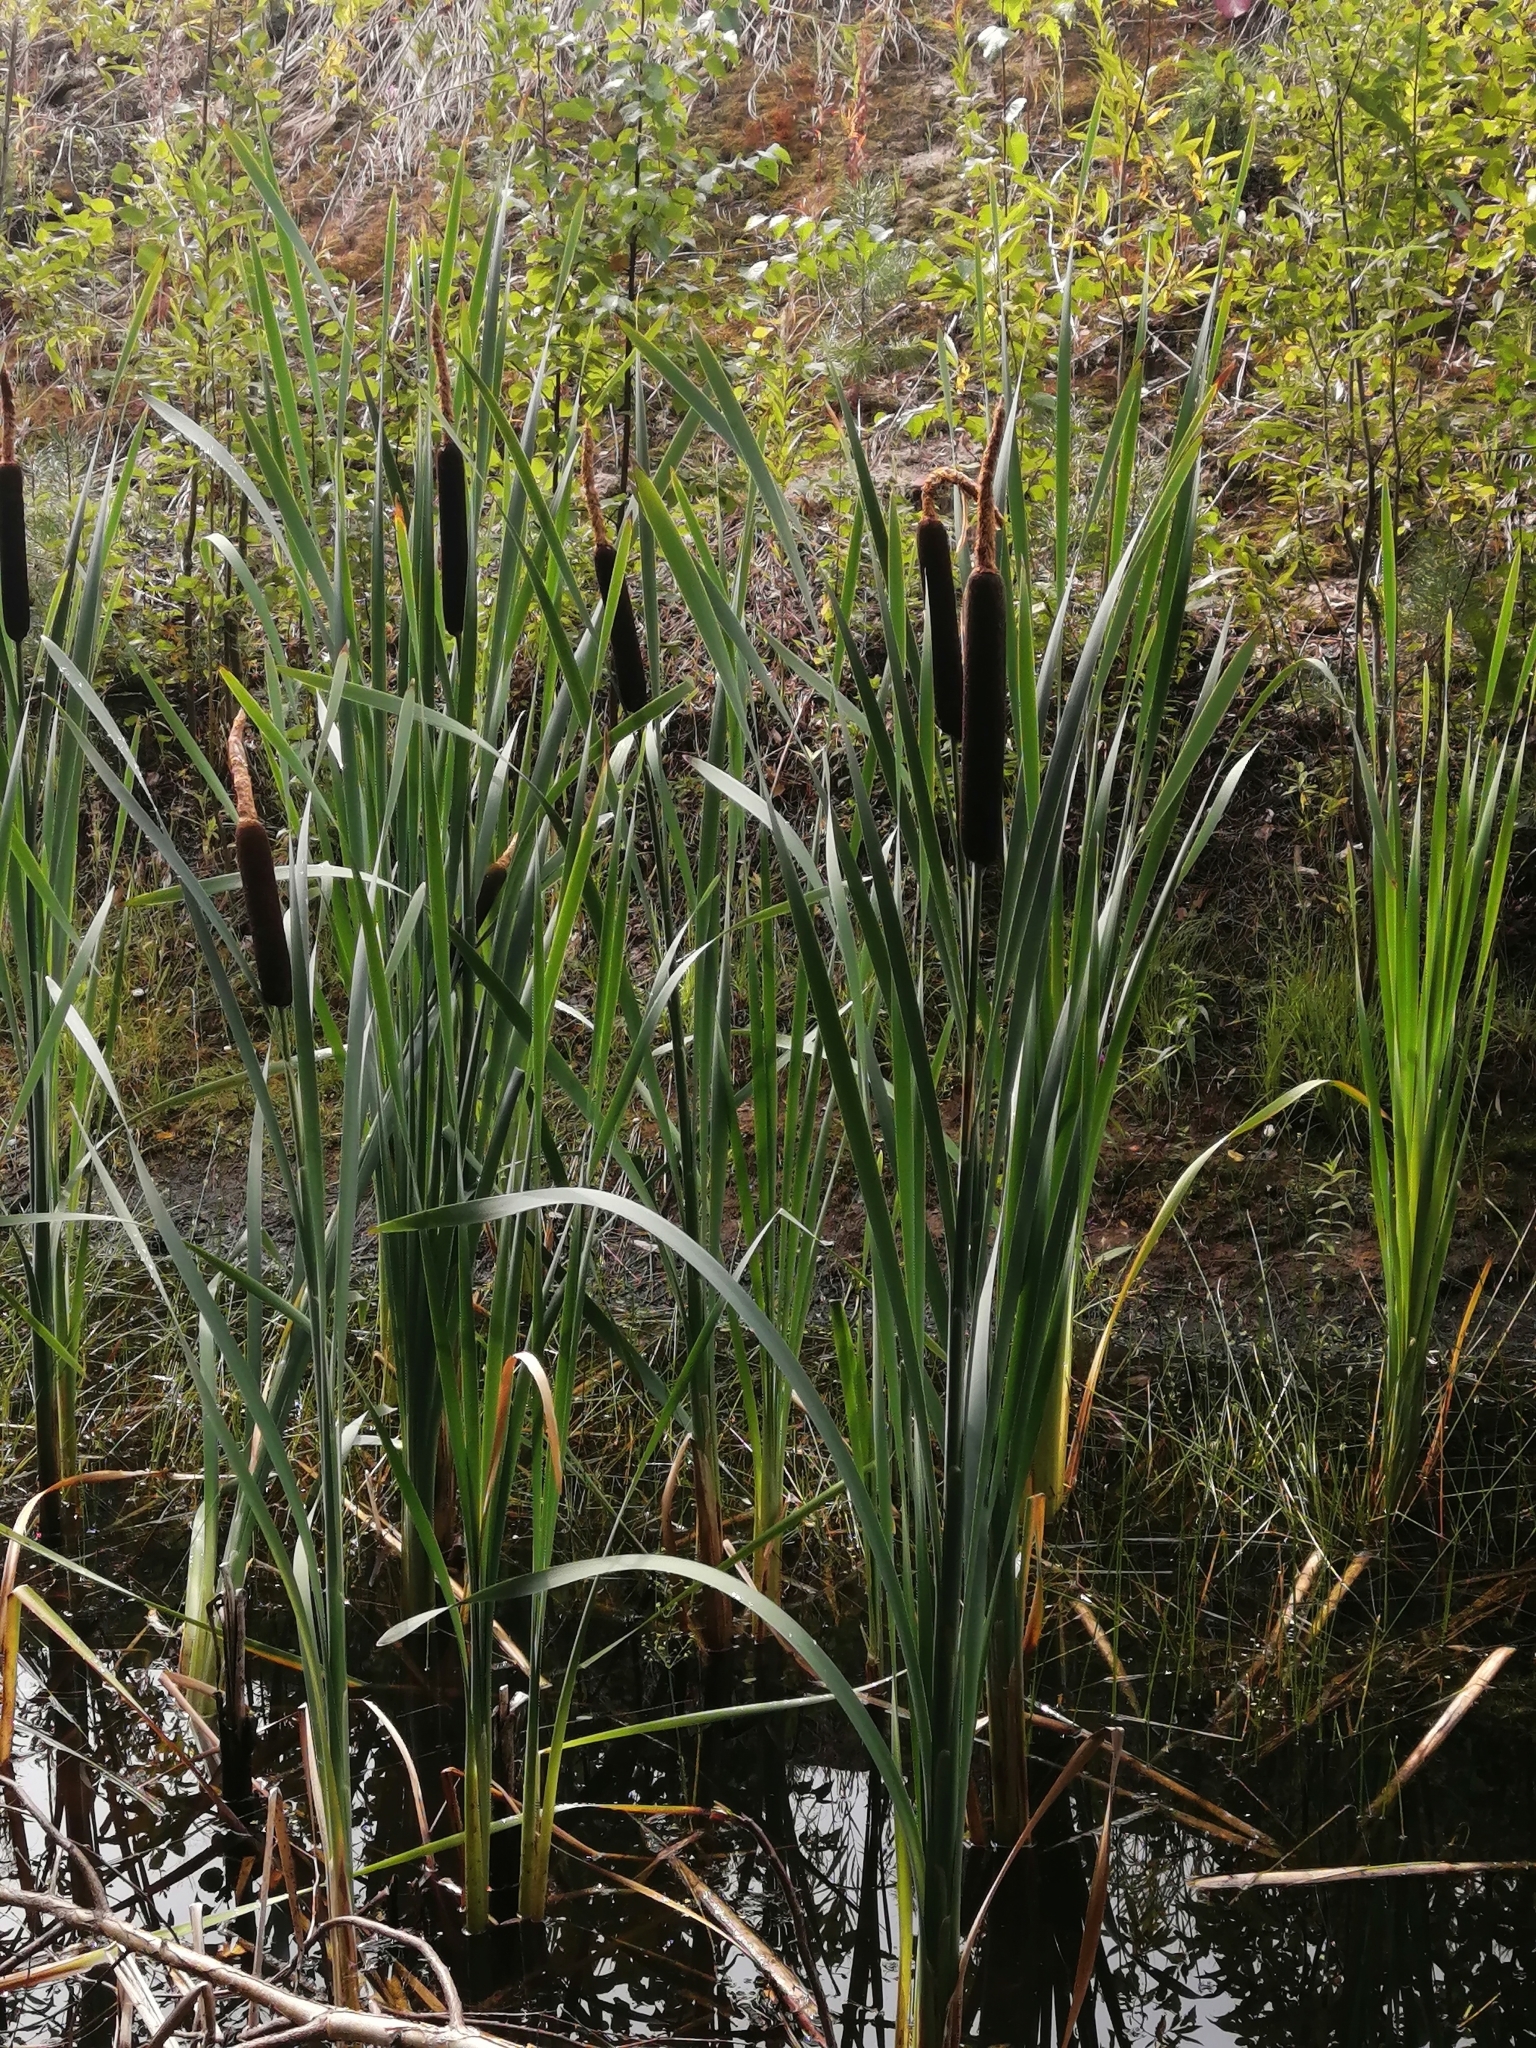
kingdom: Plantae
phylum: Tracheophyta
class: Liliopsida
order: Poales
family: Typhaceae
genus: Typha
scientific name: Typha latifolia
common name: Broadleaf cattail
